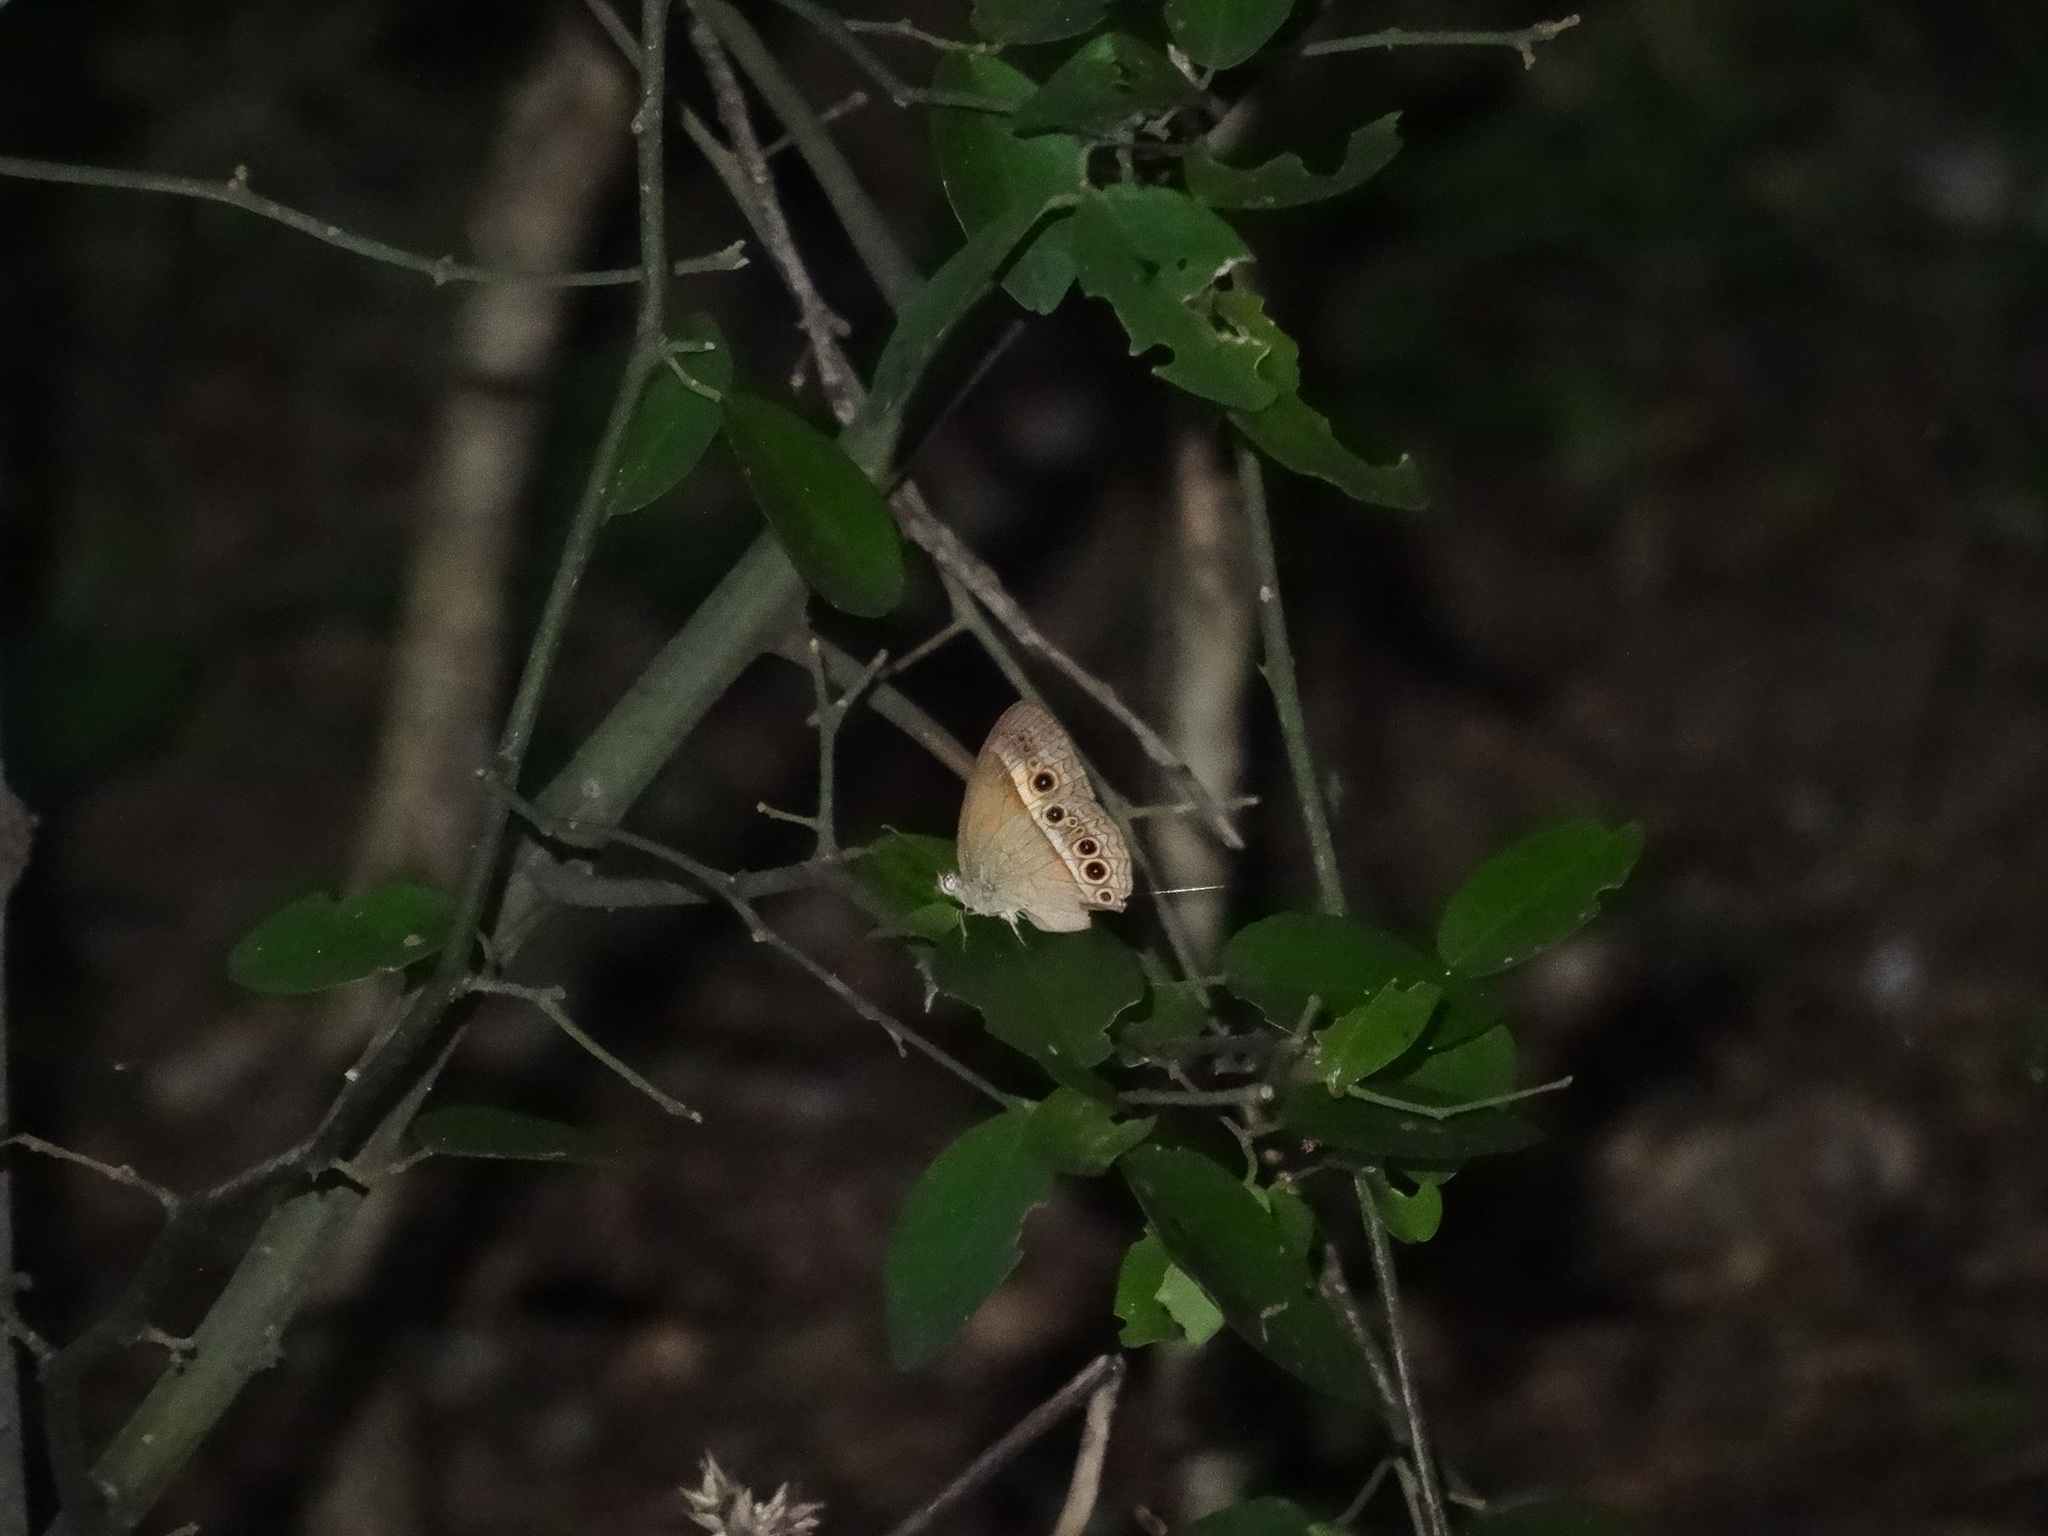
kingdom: Animalia
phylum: Arthropoda
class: Insecta
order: Lepidoptera
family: Nymphalidae
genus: Mycalesis
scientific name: Mycalesis terminus
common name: Orange bushbrown
